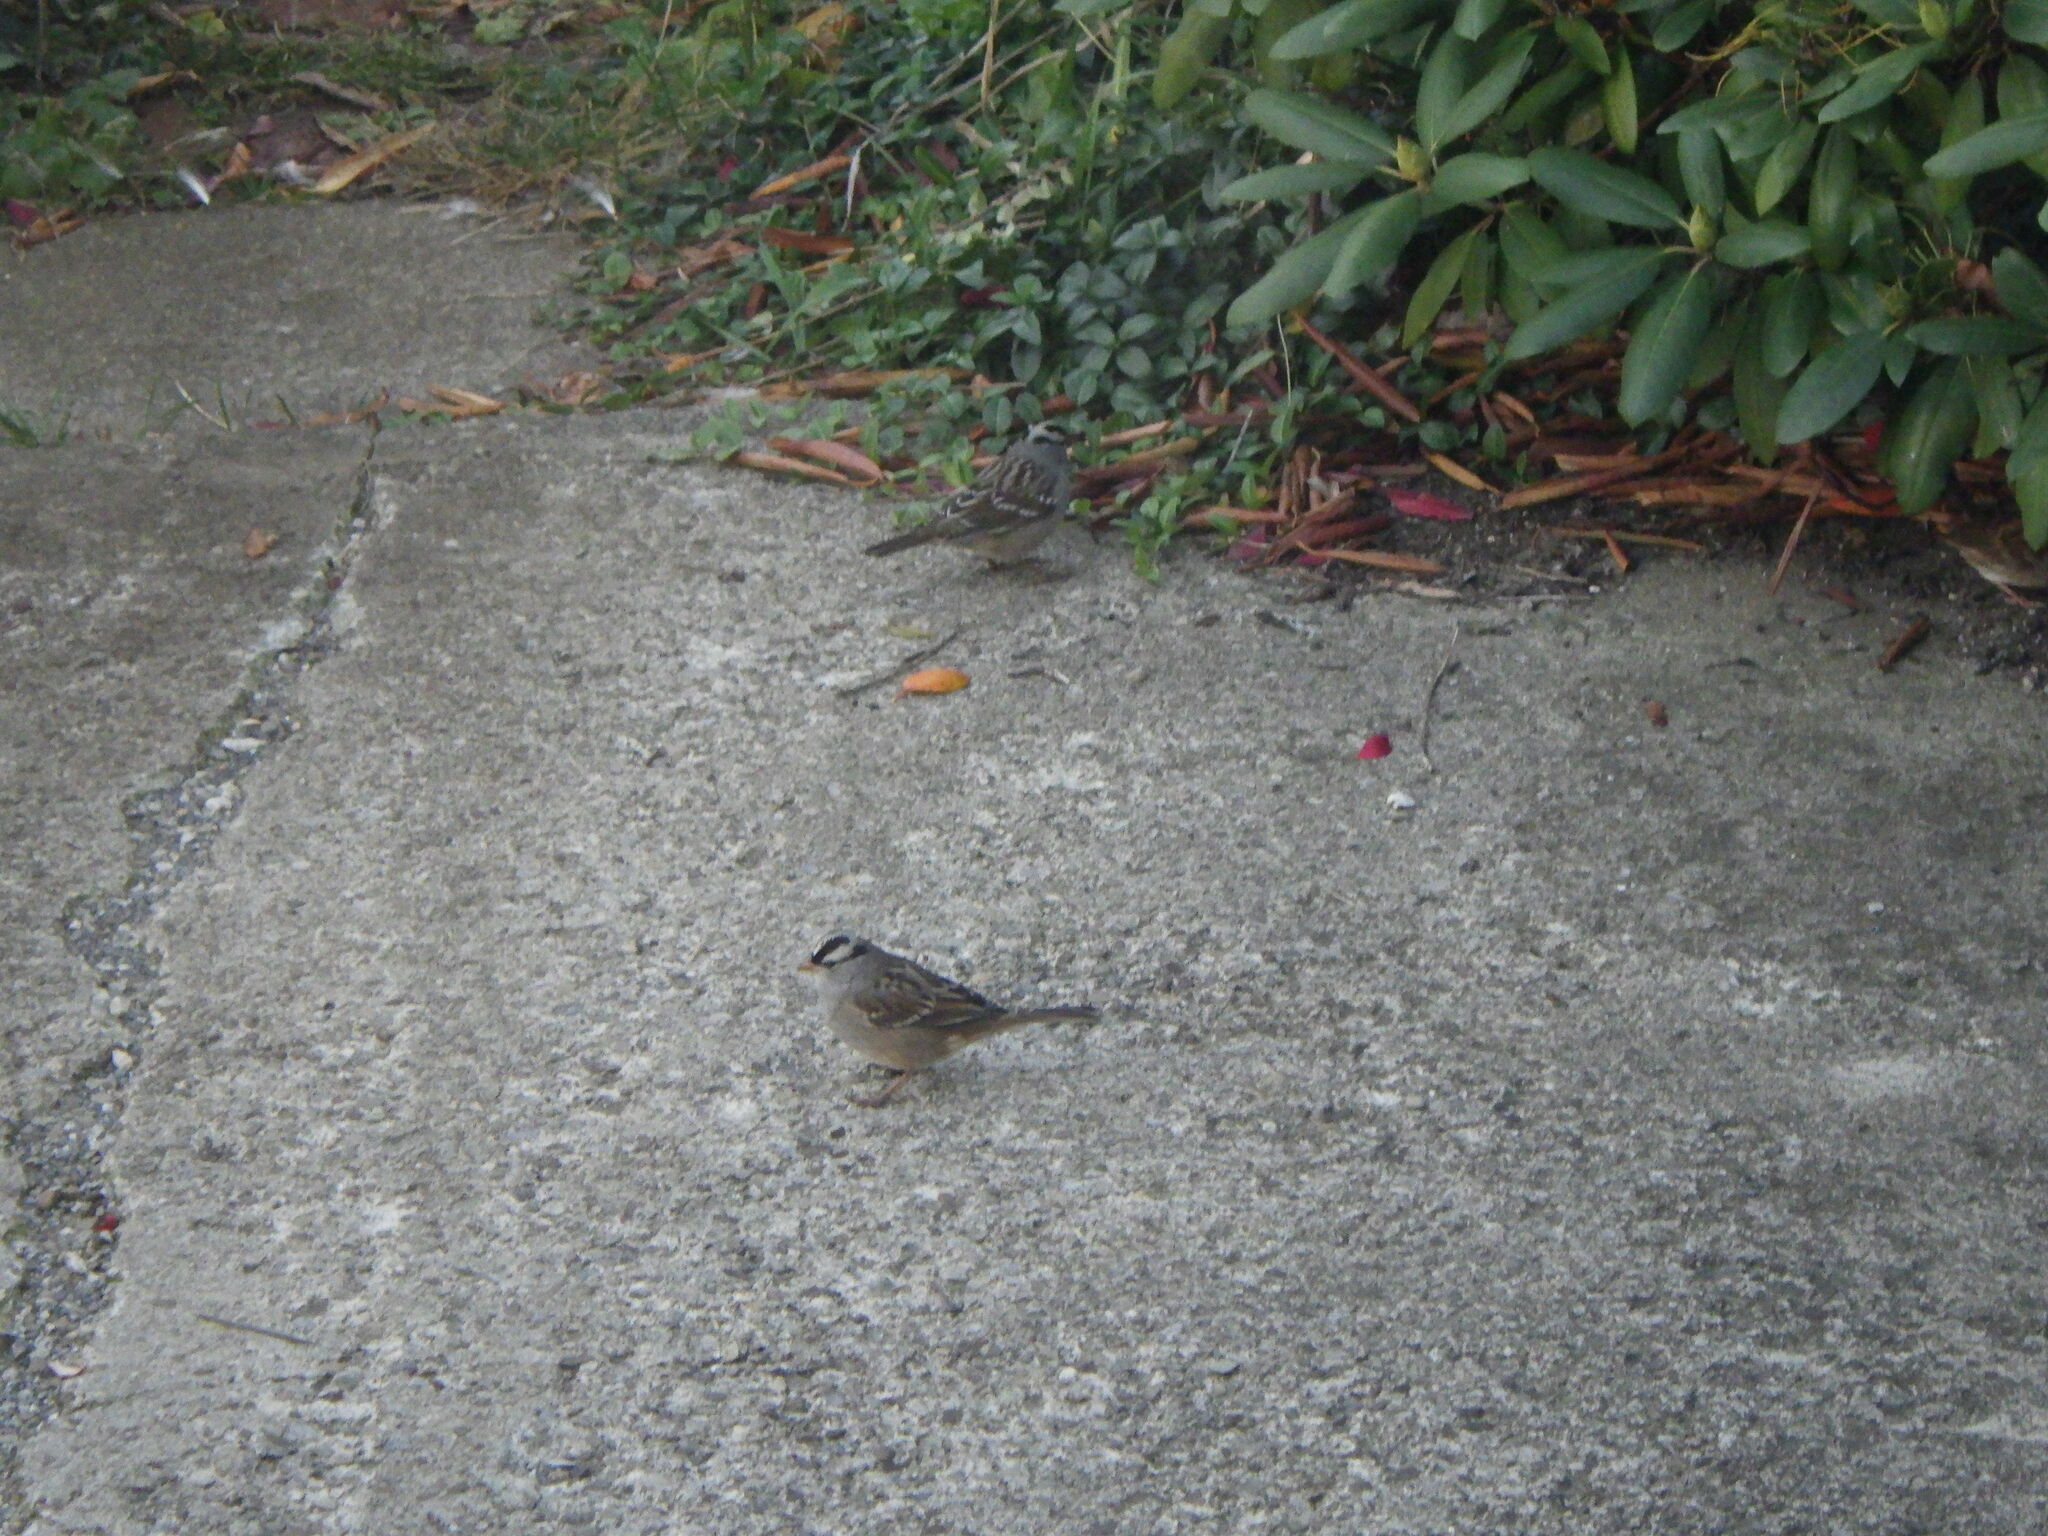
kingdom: Animalia
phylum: Chordata
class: Aves
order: Passeriformes
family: Passerellidae
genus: Zonotrichia
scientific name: Zonotrichia leucophrys
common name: White-crowned sparrow
